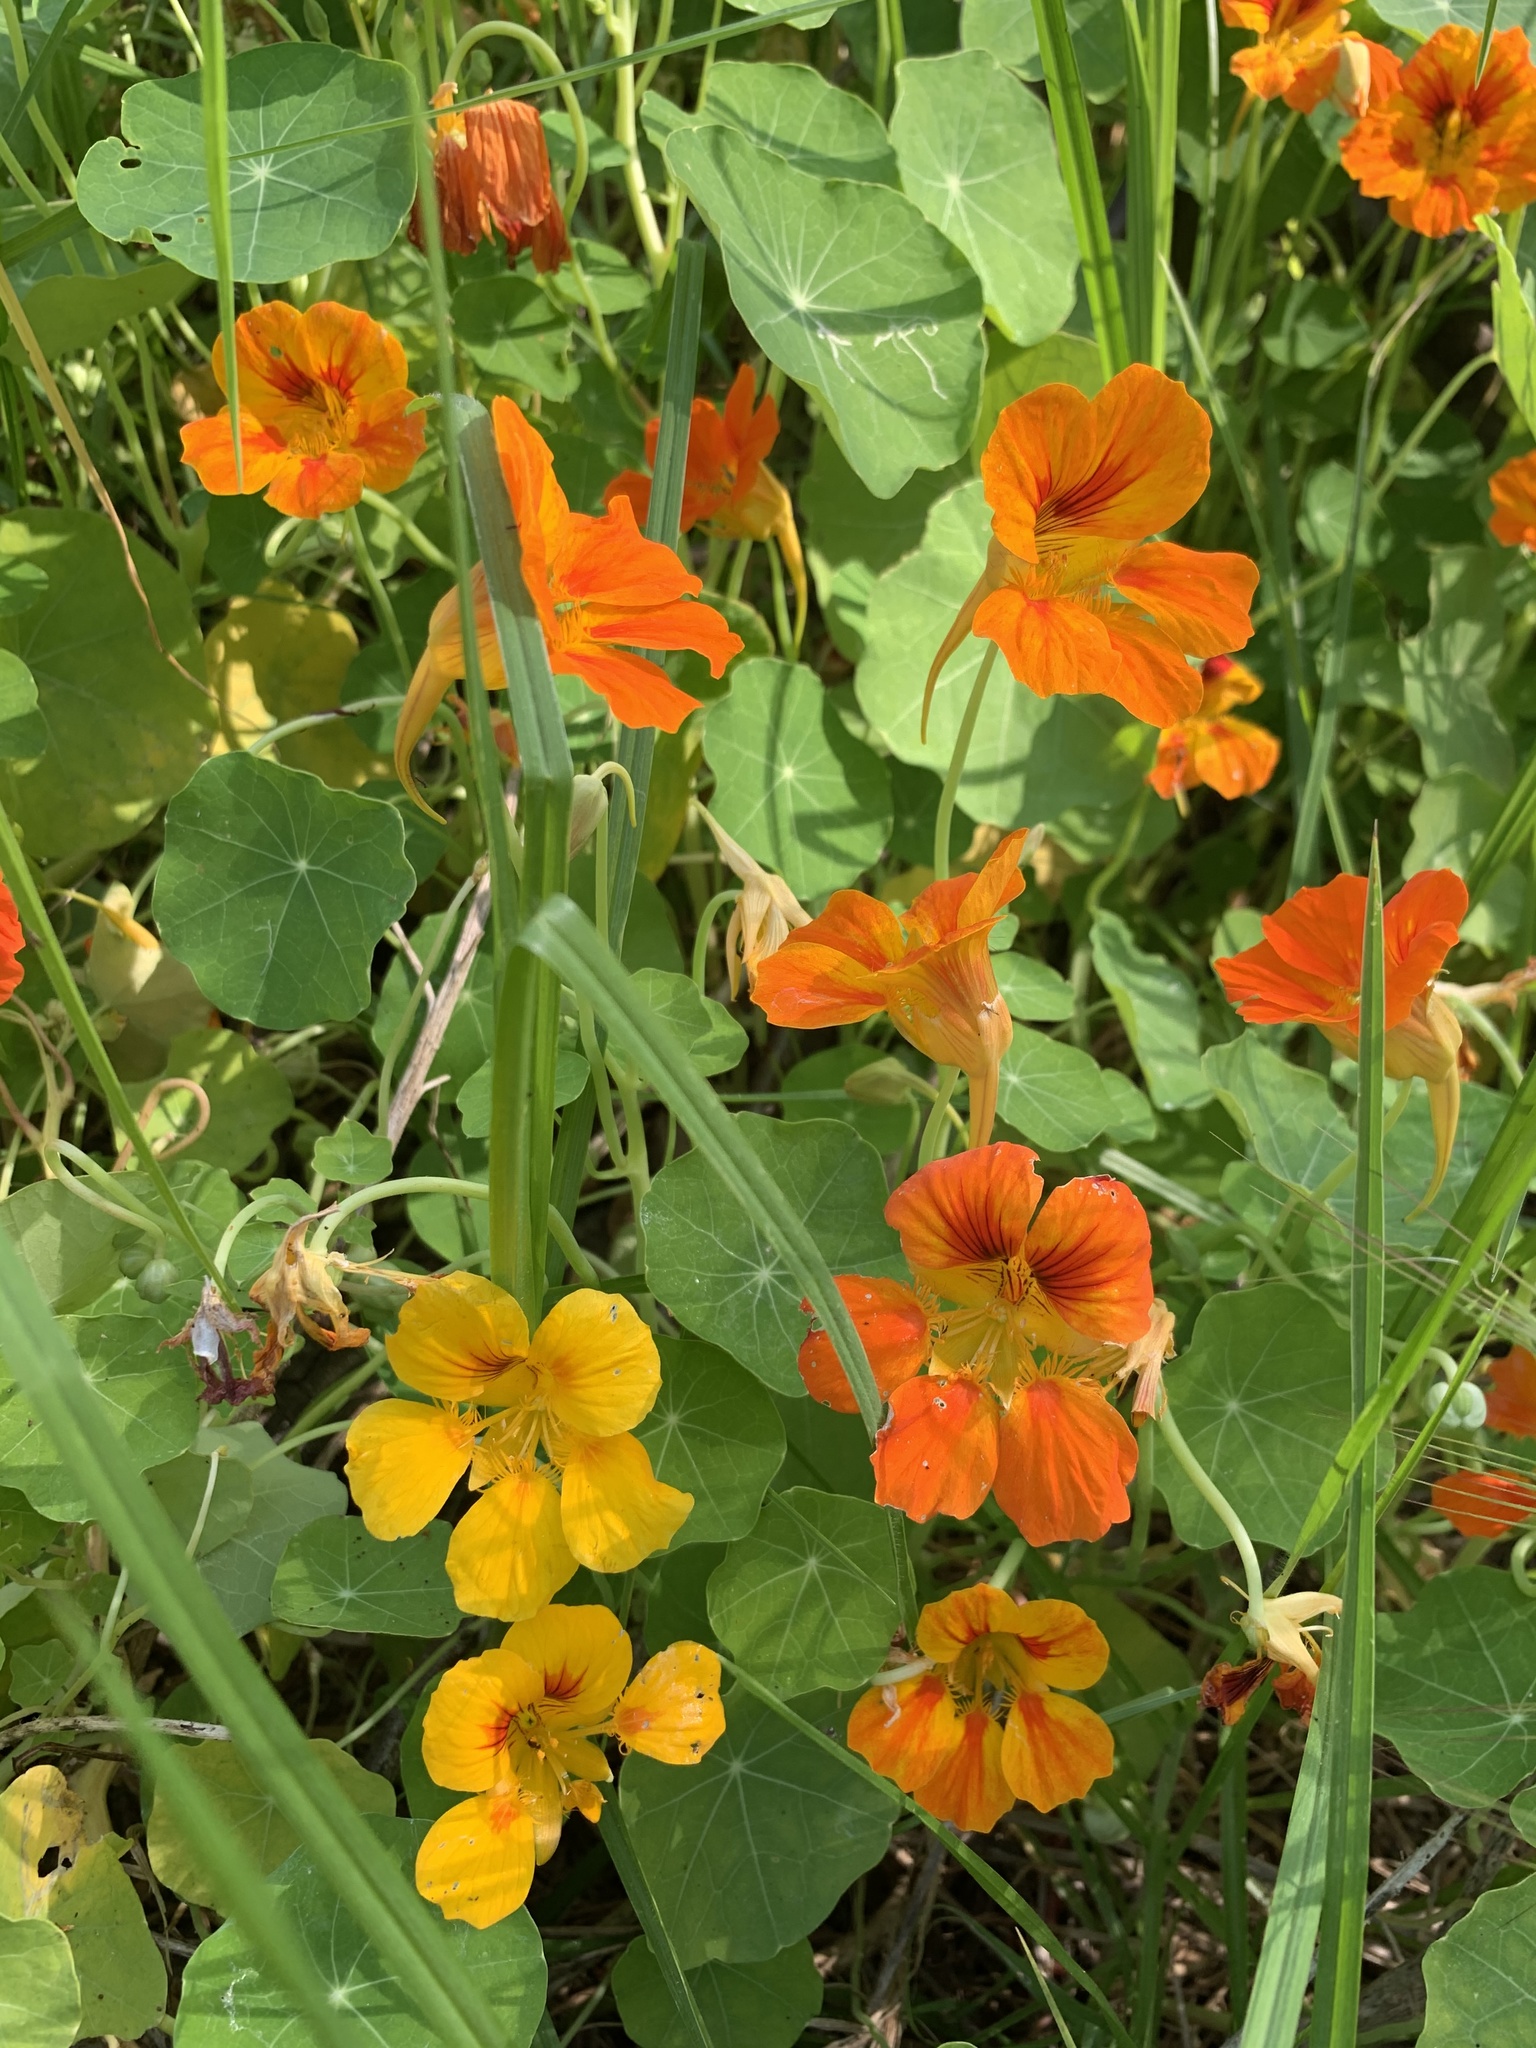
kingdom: Plantae
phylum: Tracheophyta
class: Magnoliopsida
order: Brassicales
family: Tropaeolaceae
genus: Tropaeolum
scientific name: Tropaeolum majus
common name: Nasturtium
